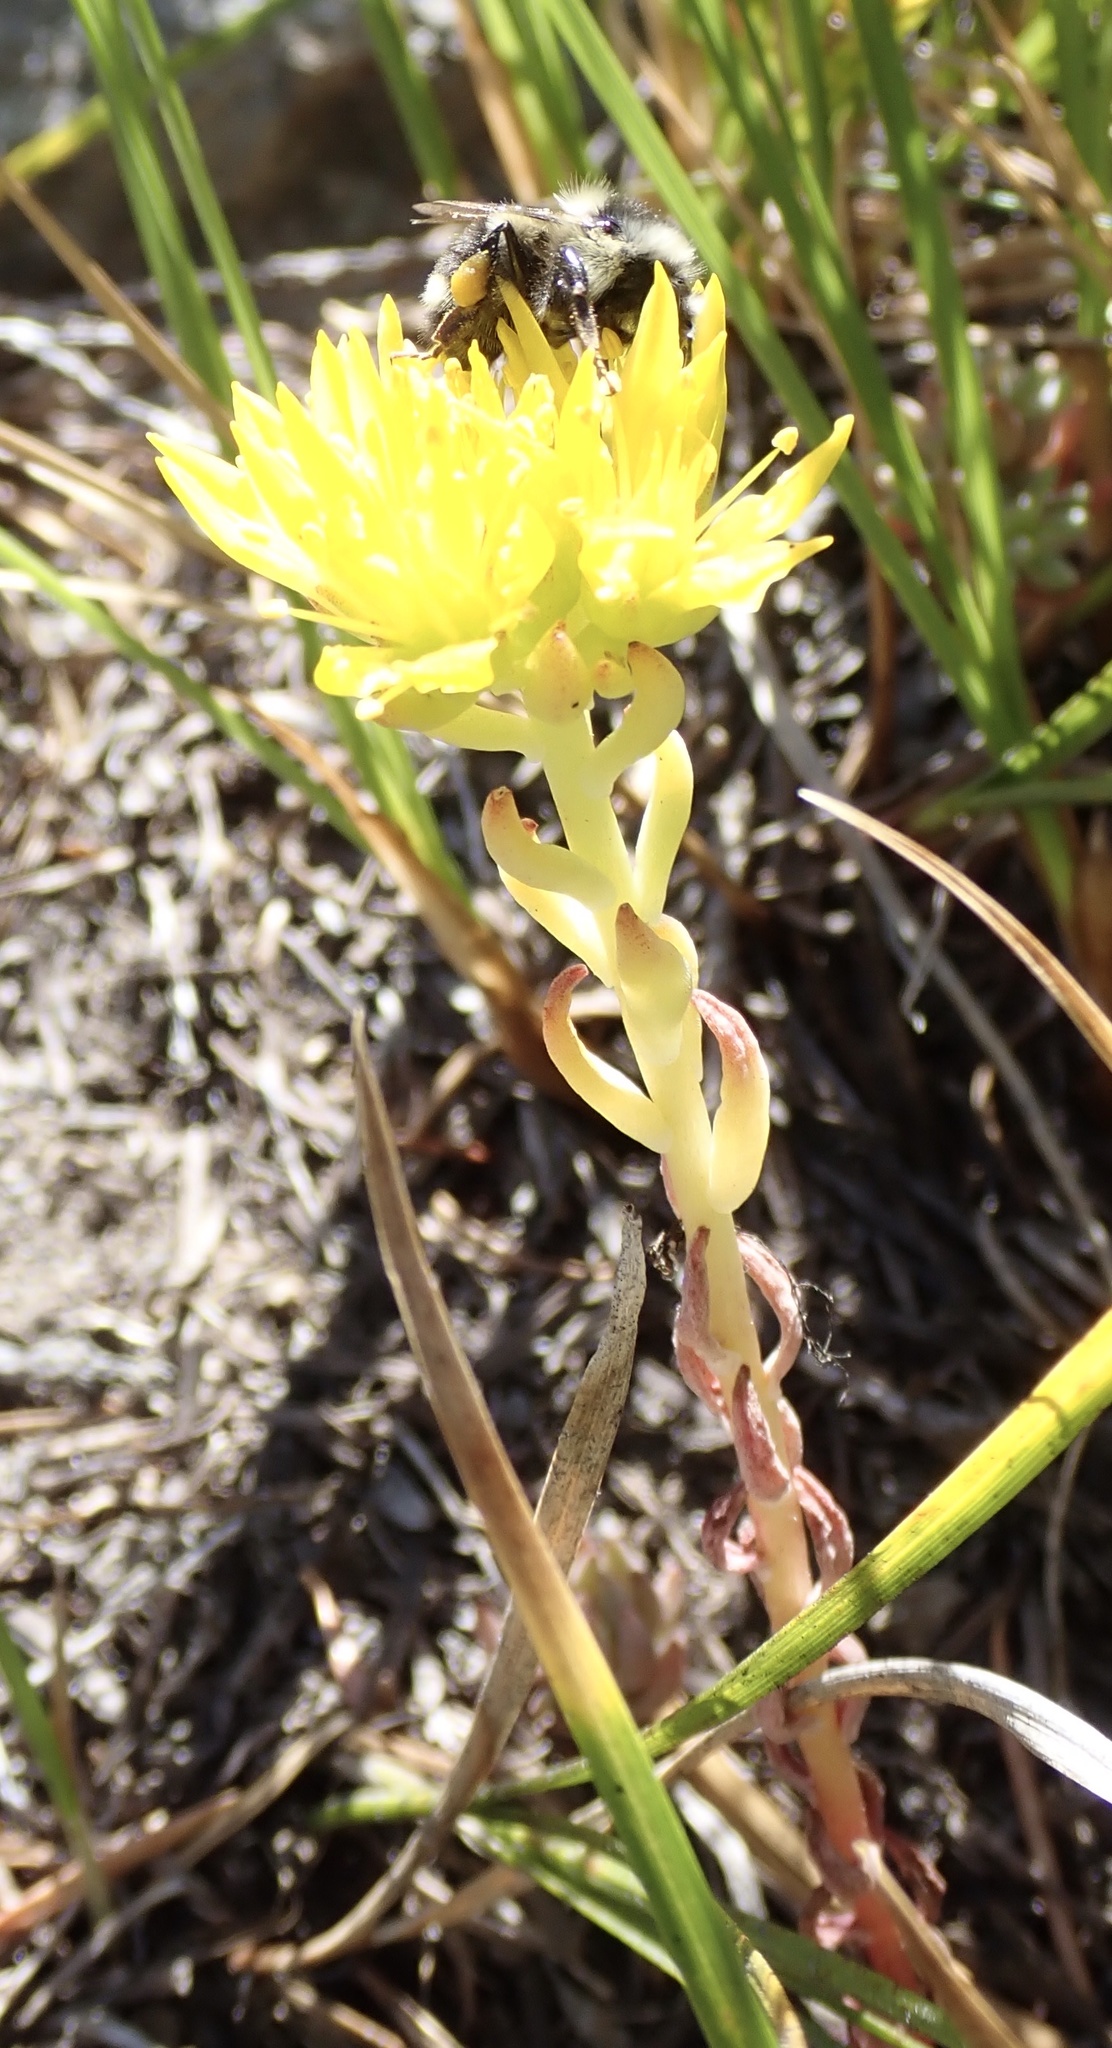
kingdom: Plantae
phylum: Tracheophyta
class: Magnoliopsida
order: Saxifragales
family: Crassulaceae
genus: Sedum
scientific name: Sedum lanceolatum
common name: Common stonecrop
